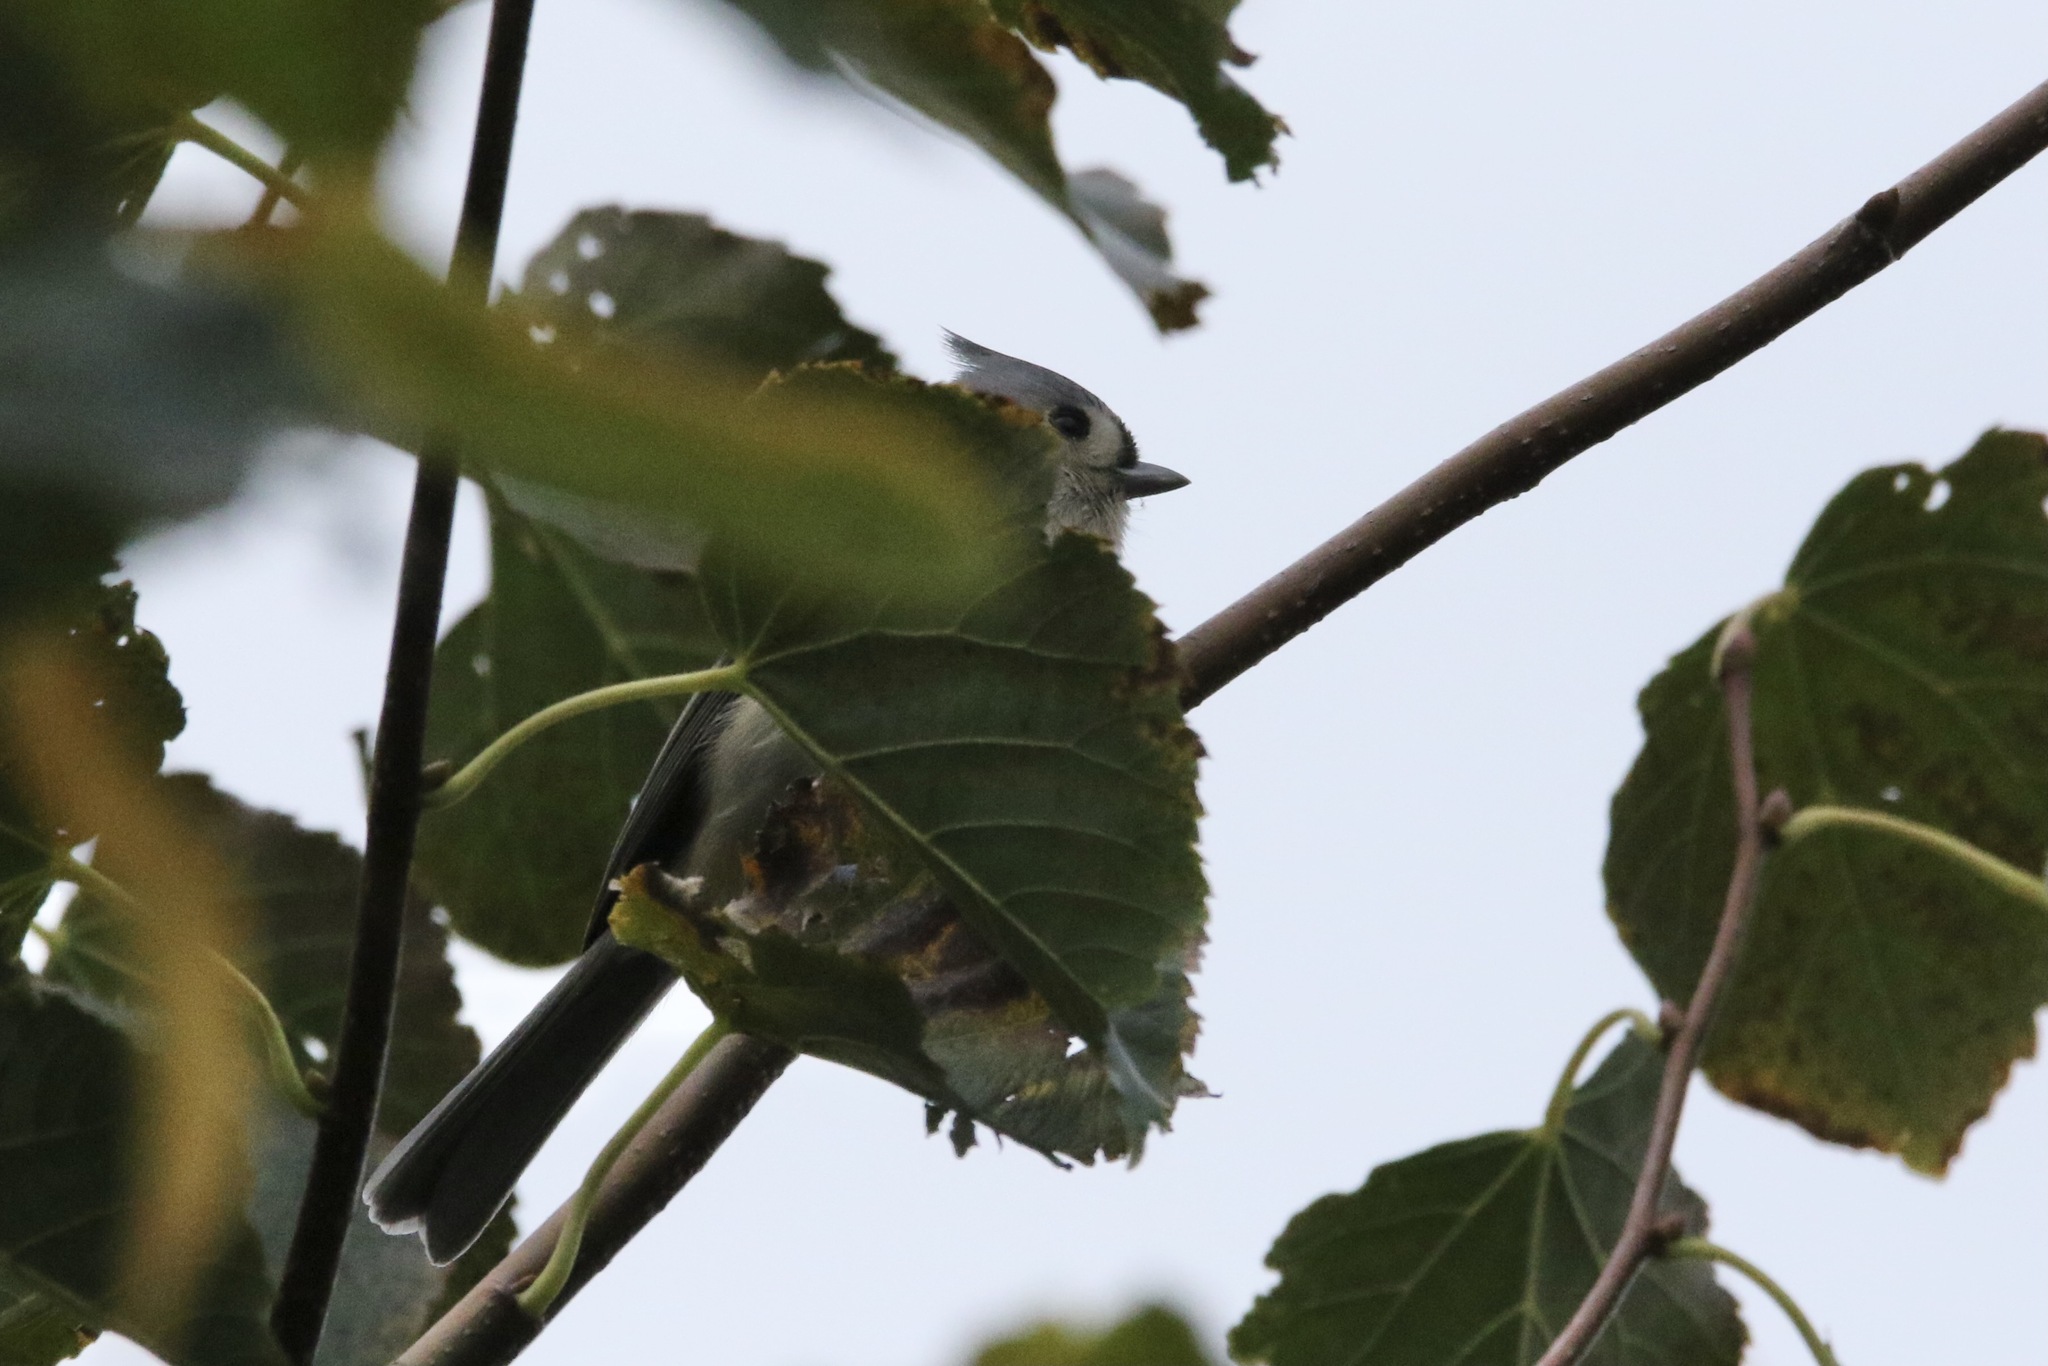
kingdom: Animalia
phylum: Chordata
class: Aves
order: Passeriformes
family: Paridae
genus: Baeolophus
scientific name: Baeolophus bicolor
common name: Tufted titmouse
